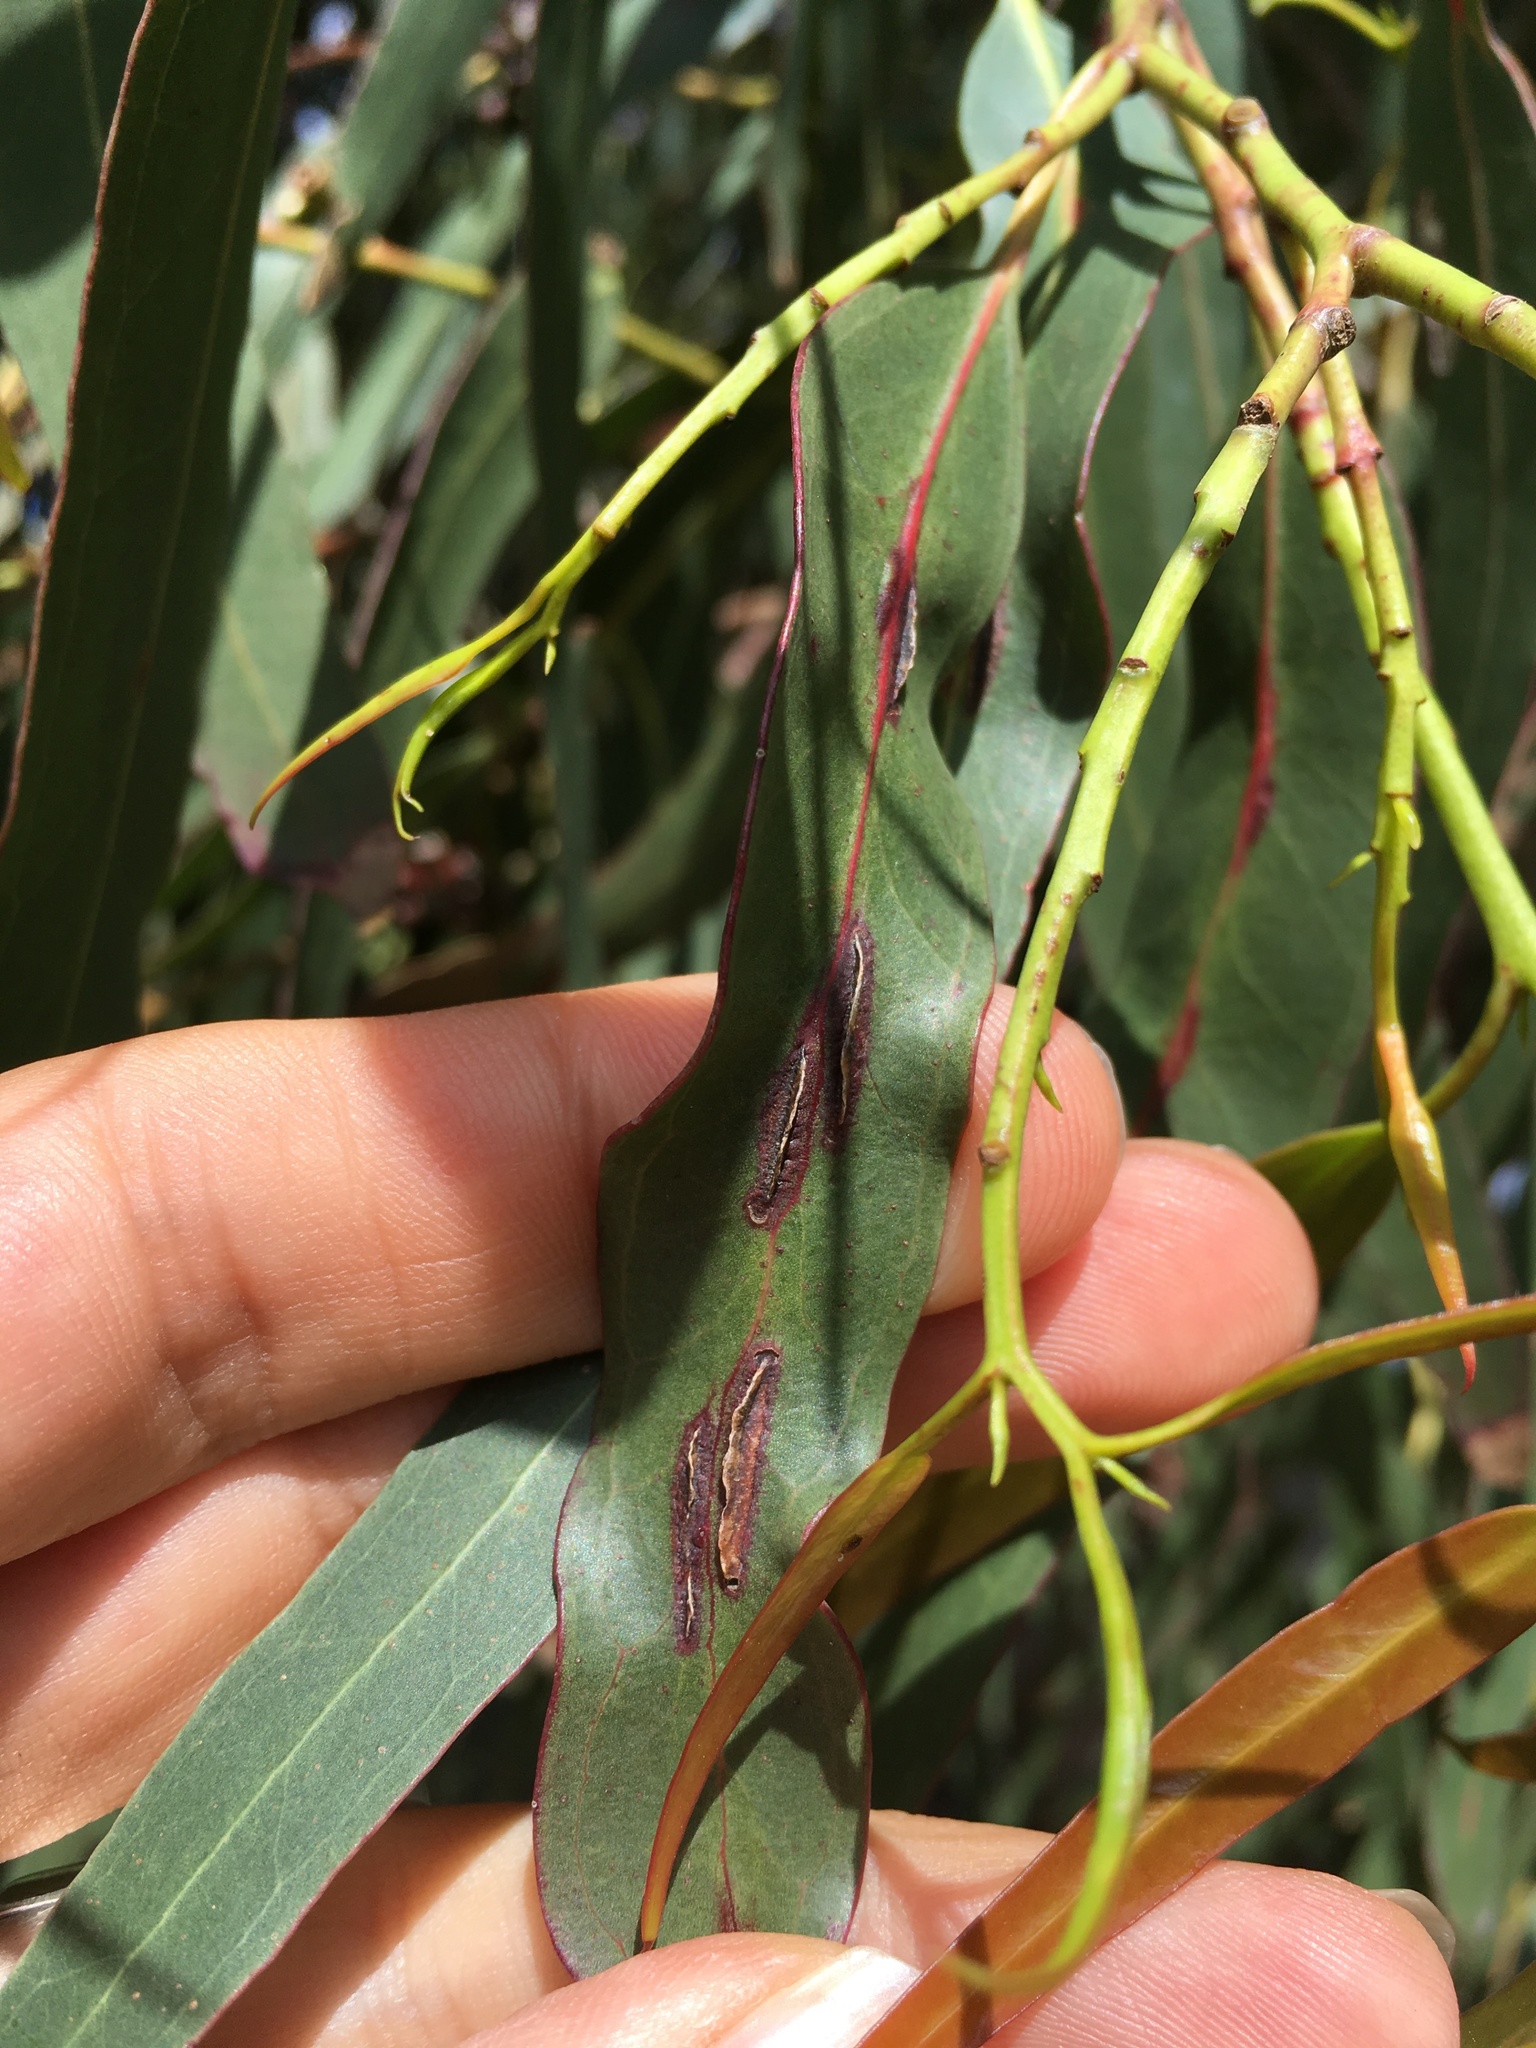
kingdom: Animalia
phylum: Arthropoda
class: Insecta
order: Hymenoptera
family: Pteromalidae
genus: Nambouria
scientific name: Nambouria xanthops
